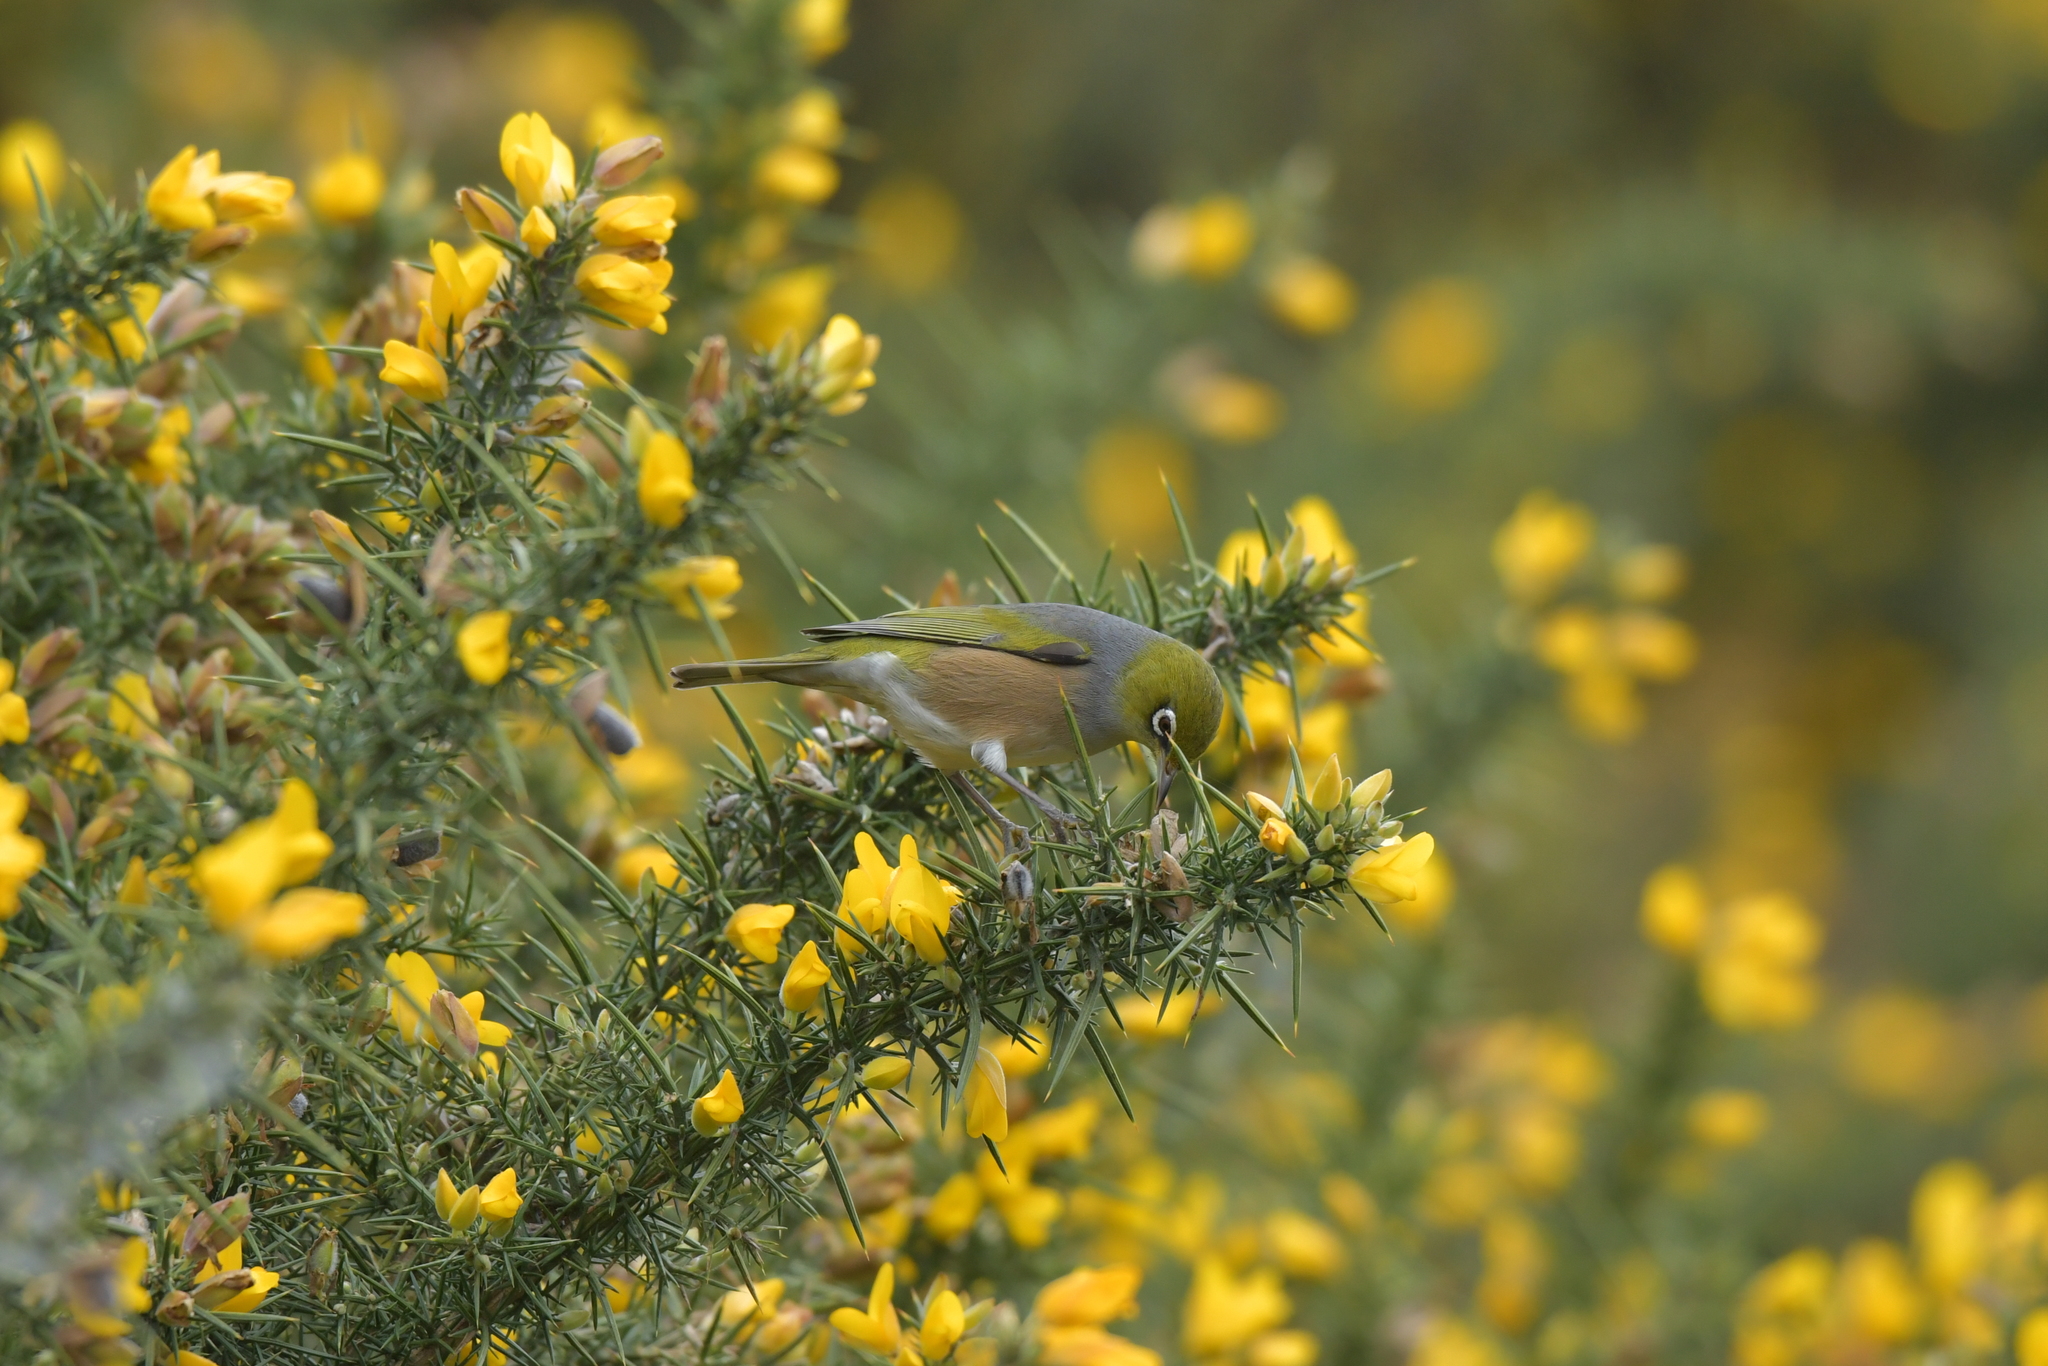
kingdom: Animalia
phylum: Chordata
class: Aves
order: Passeriformes
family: Zosteropidae
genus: Zosterops
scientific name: Zosterops lateralis
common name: Silvereye
